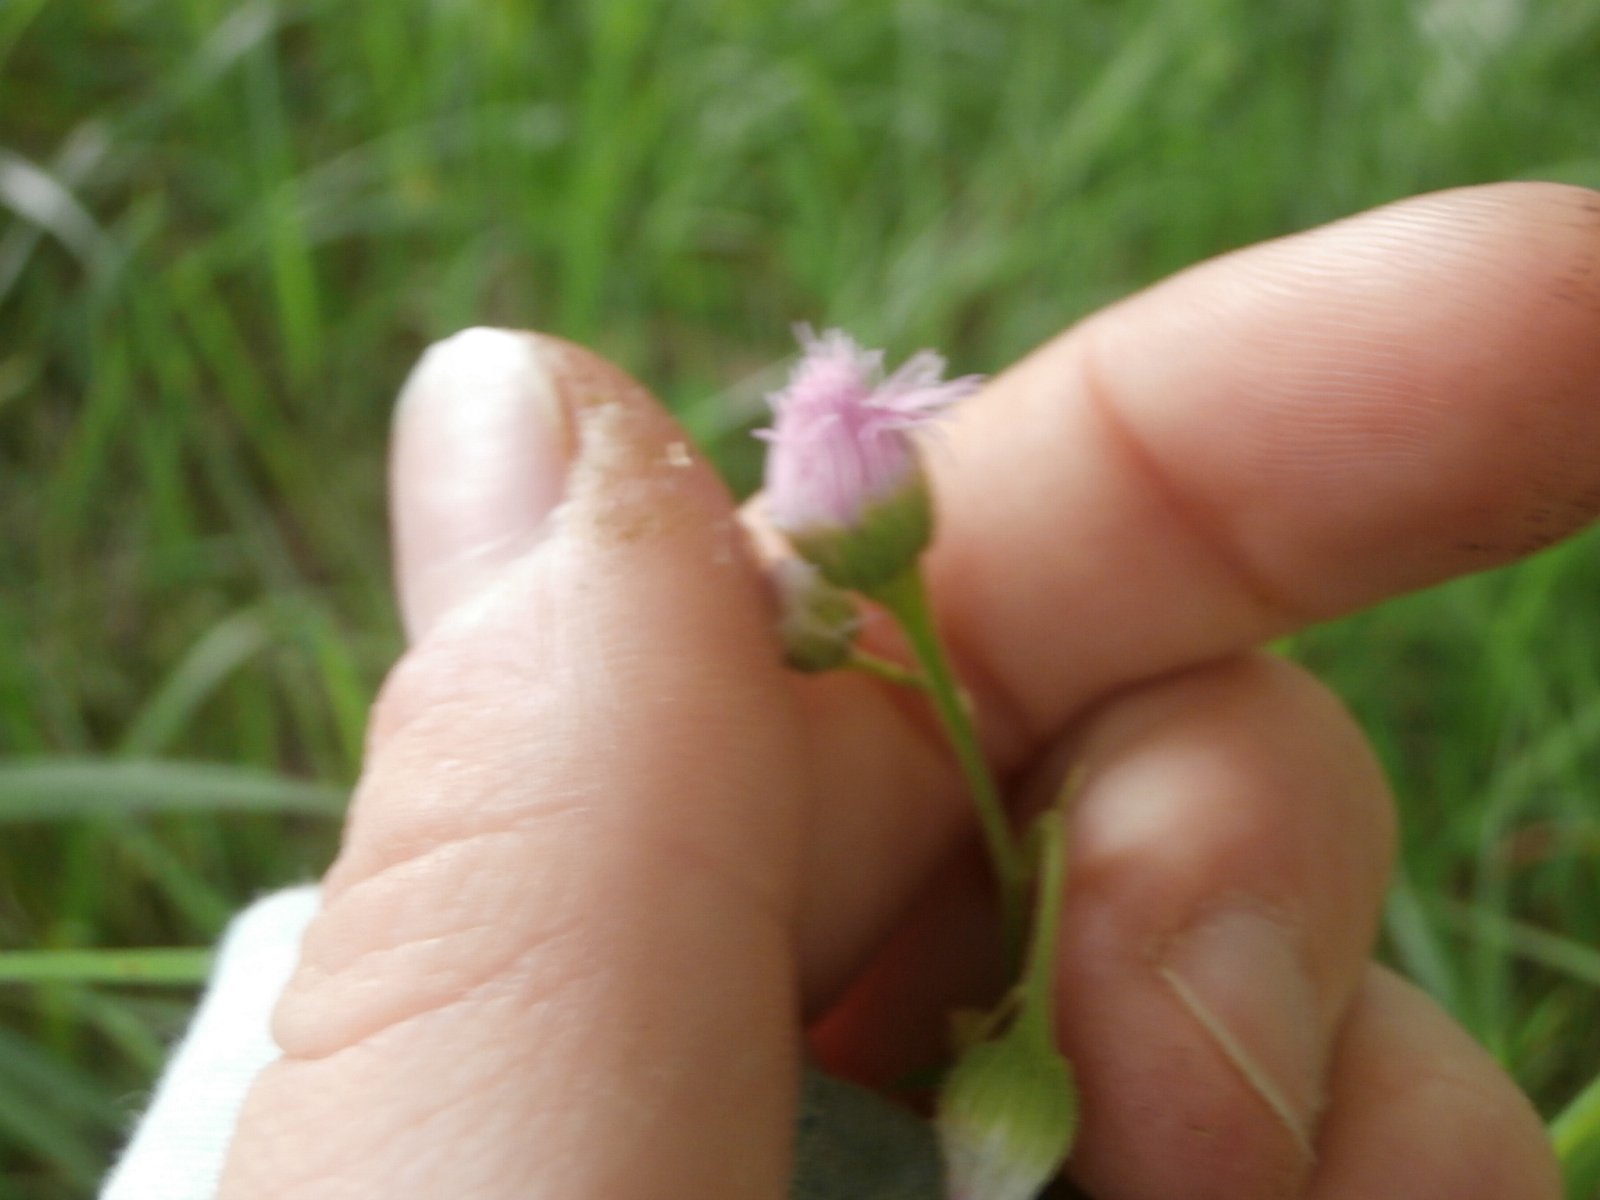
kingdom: Plantae
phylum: Tracheophyta
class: Magnoliopsida
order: Asterales
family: Asteraceae
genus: Erigeron
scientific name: Erigeron philadelphicus
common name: Robin's-plantain
